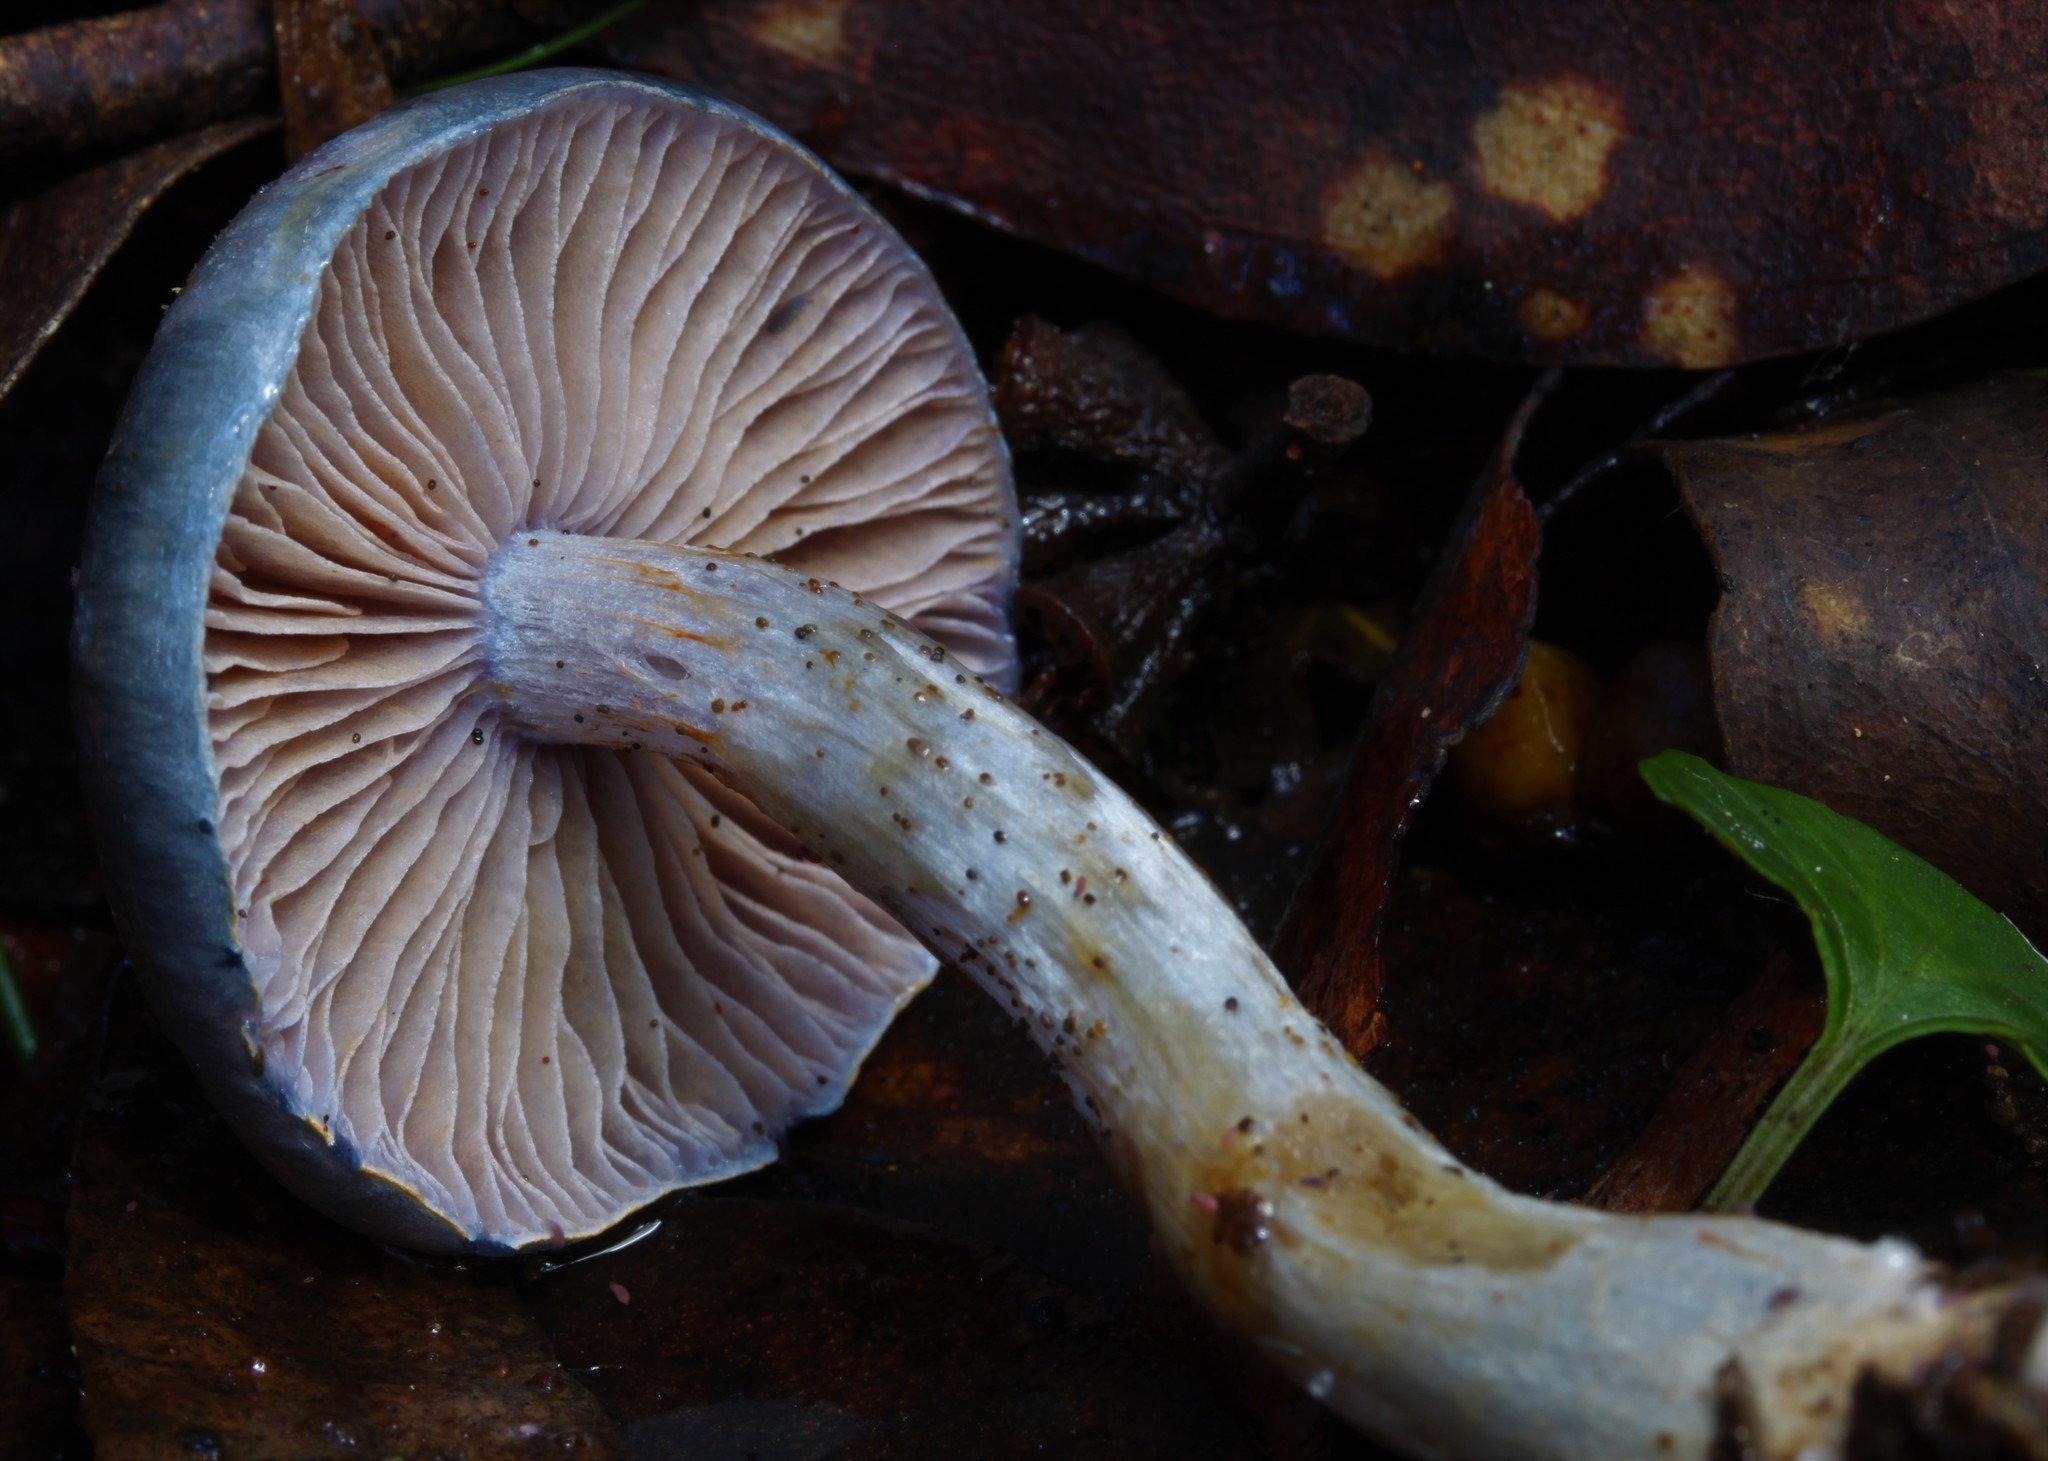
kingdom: Fungi
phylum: Basidiomycota
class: Agaricomycetes
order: Agaricales
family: Cortinariaceae
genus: Cortinarius
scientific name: Cortinarius rotundisporus
